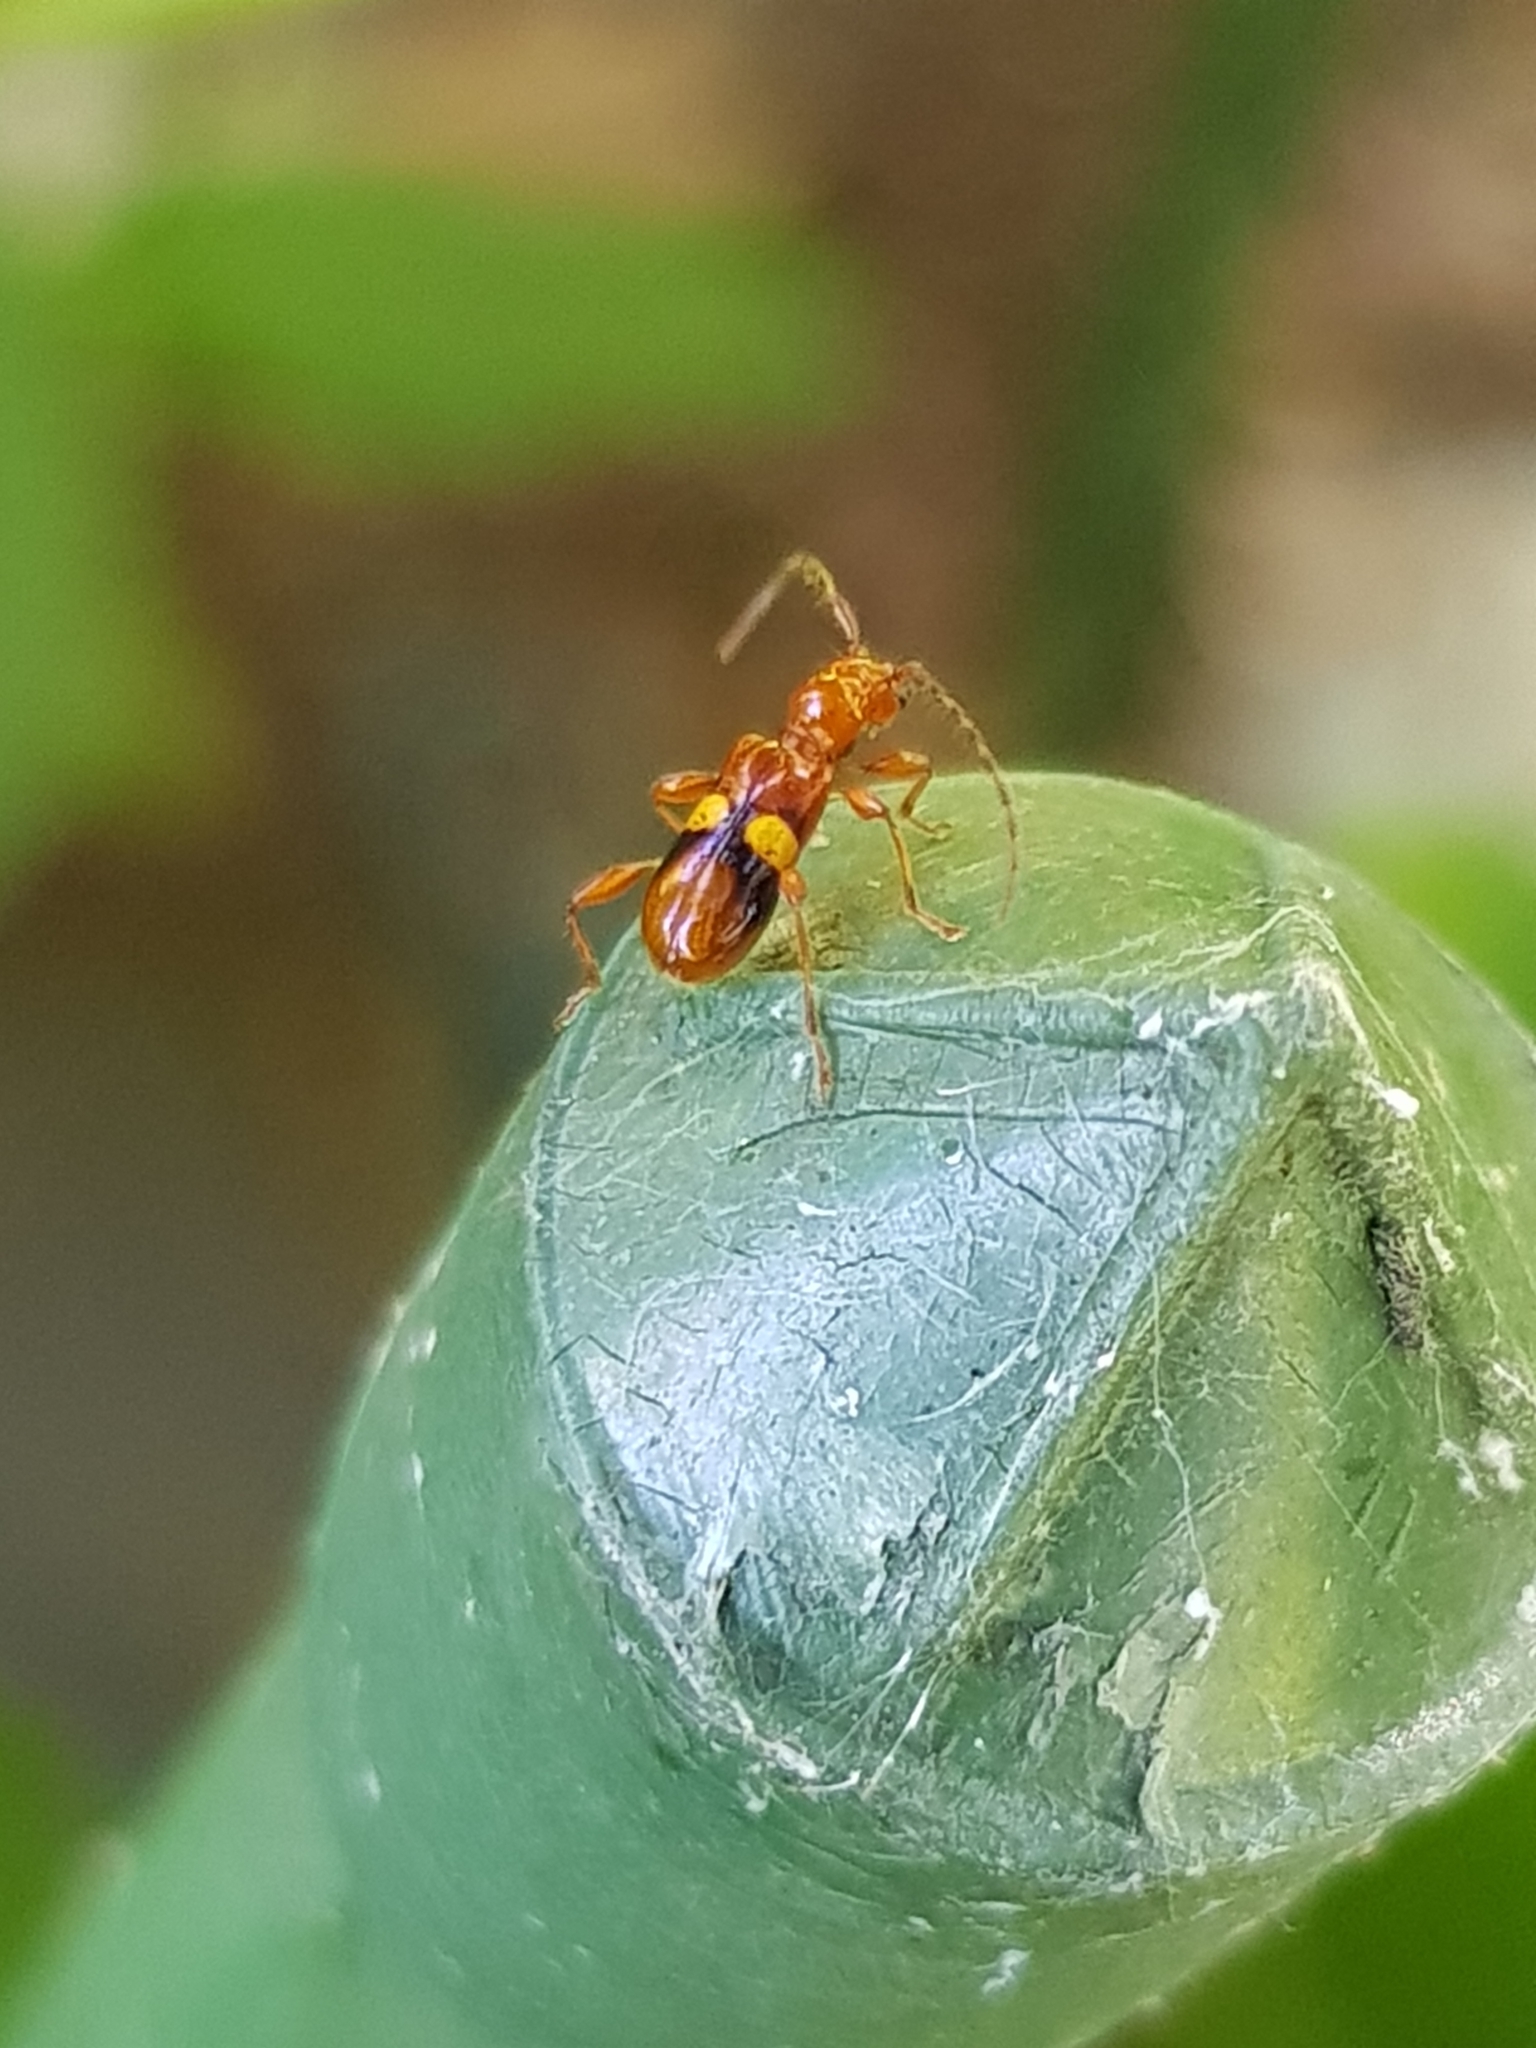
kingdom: Animalia
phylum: Arthropoda
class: Insecta
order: Coleoptera
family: Cerambycidae
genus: Zorion
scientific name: Zorion australe
